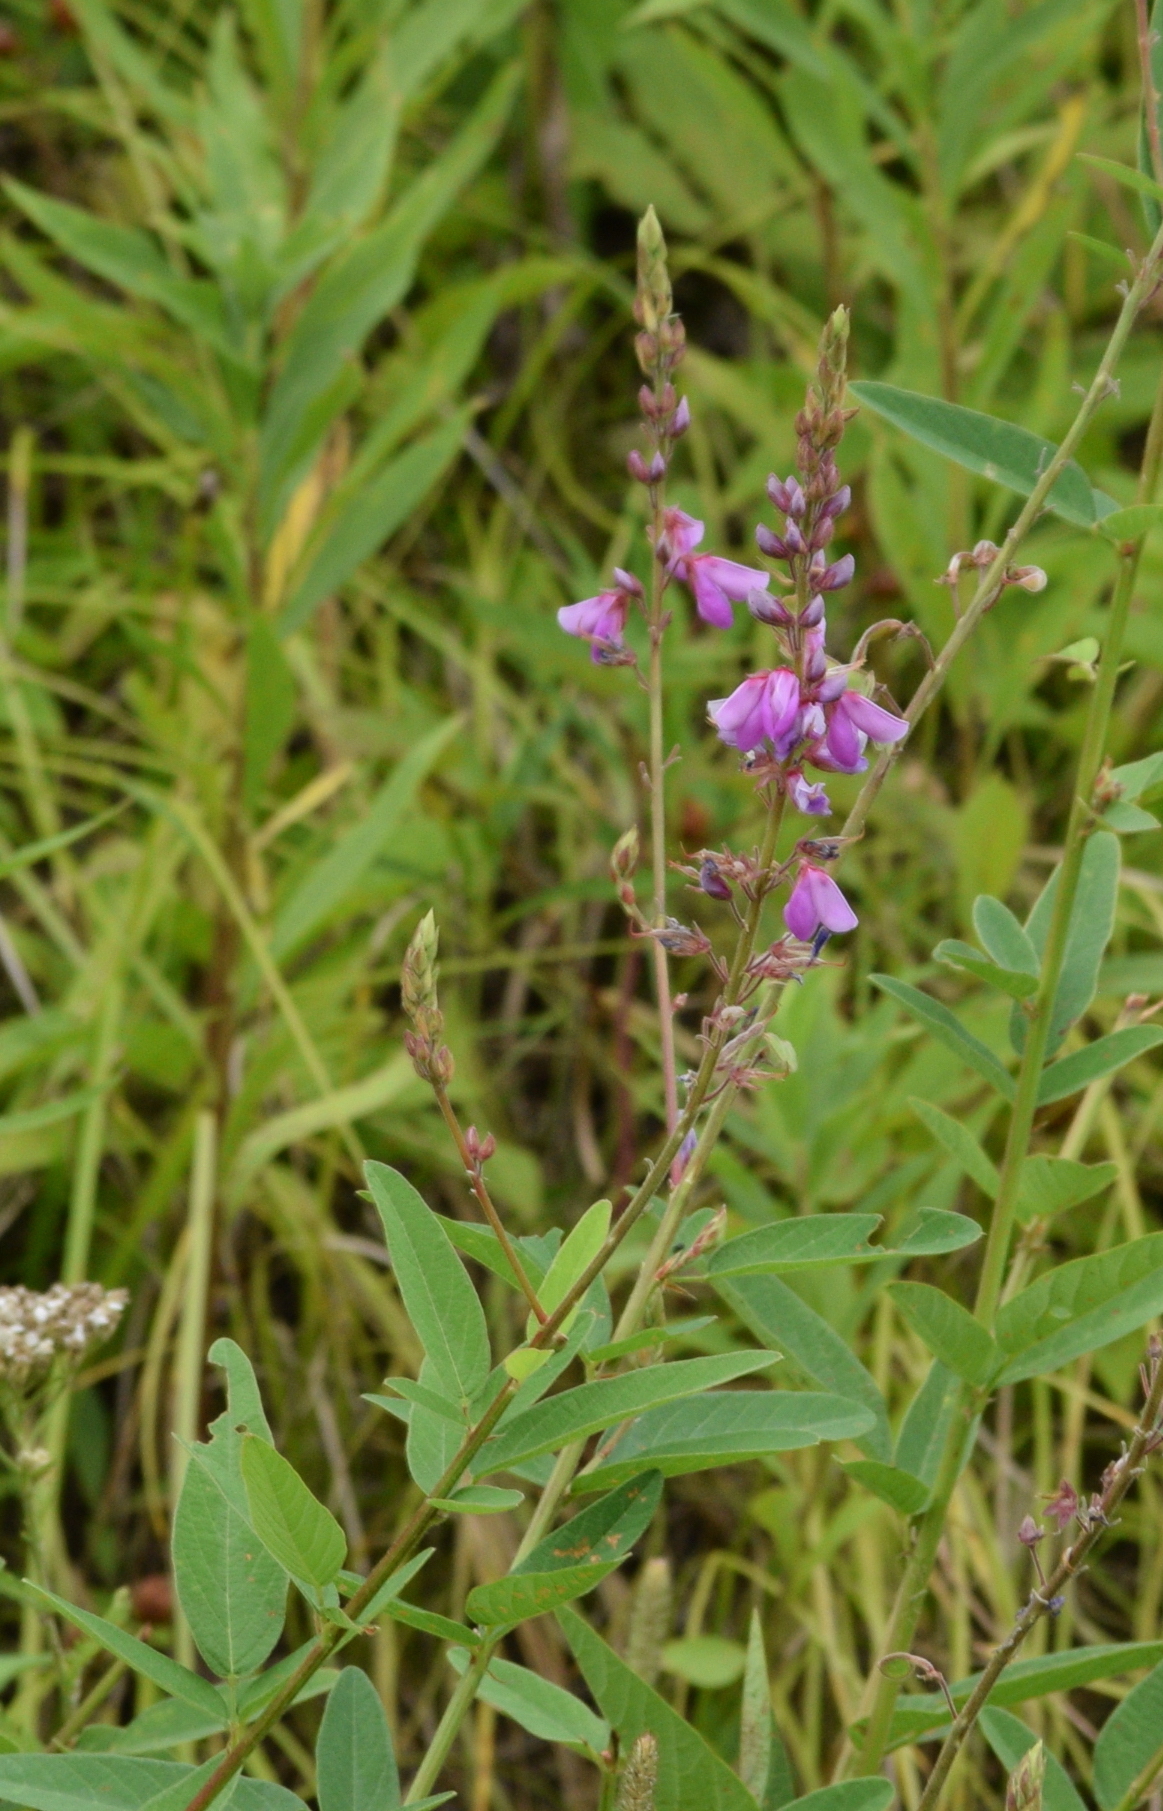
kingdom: Plantae
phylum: Tracheophyta
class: Magnoliopsida
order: Fabales
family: Fabaceae
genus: Desmodium
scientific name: Desmodium canadense
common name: Canada tick-trefoil
